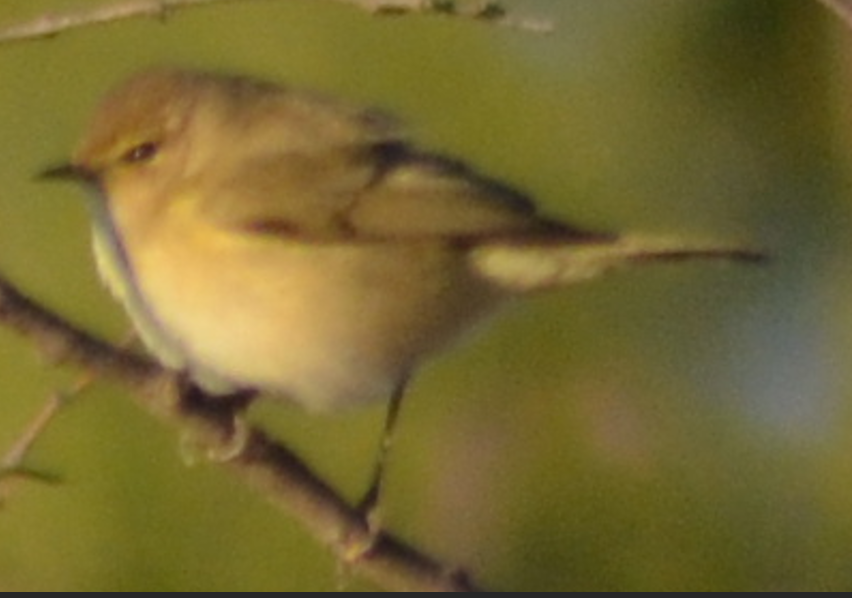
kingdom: Animalia
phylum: Chordata
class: Aves
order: Passeriformes
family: Phylloscopidae
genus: Phylloscopus
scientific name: Phylloscopus collybita
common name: Common chiffchaff
